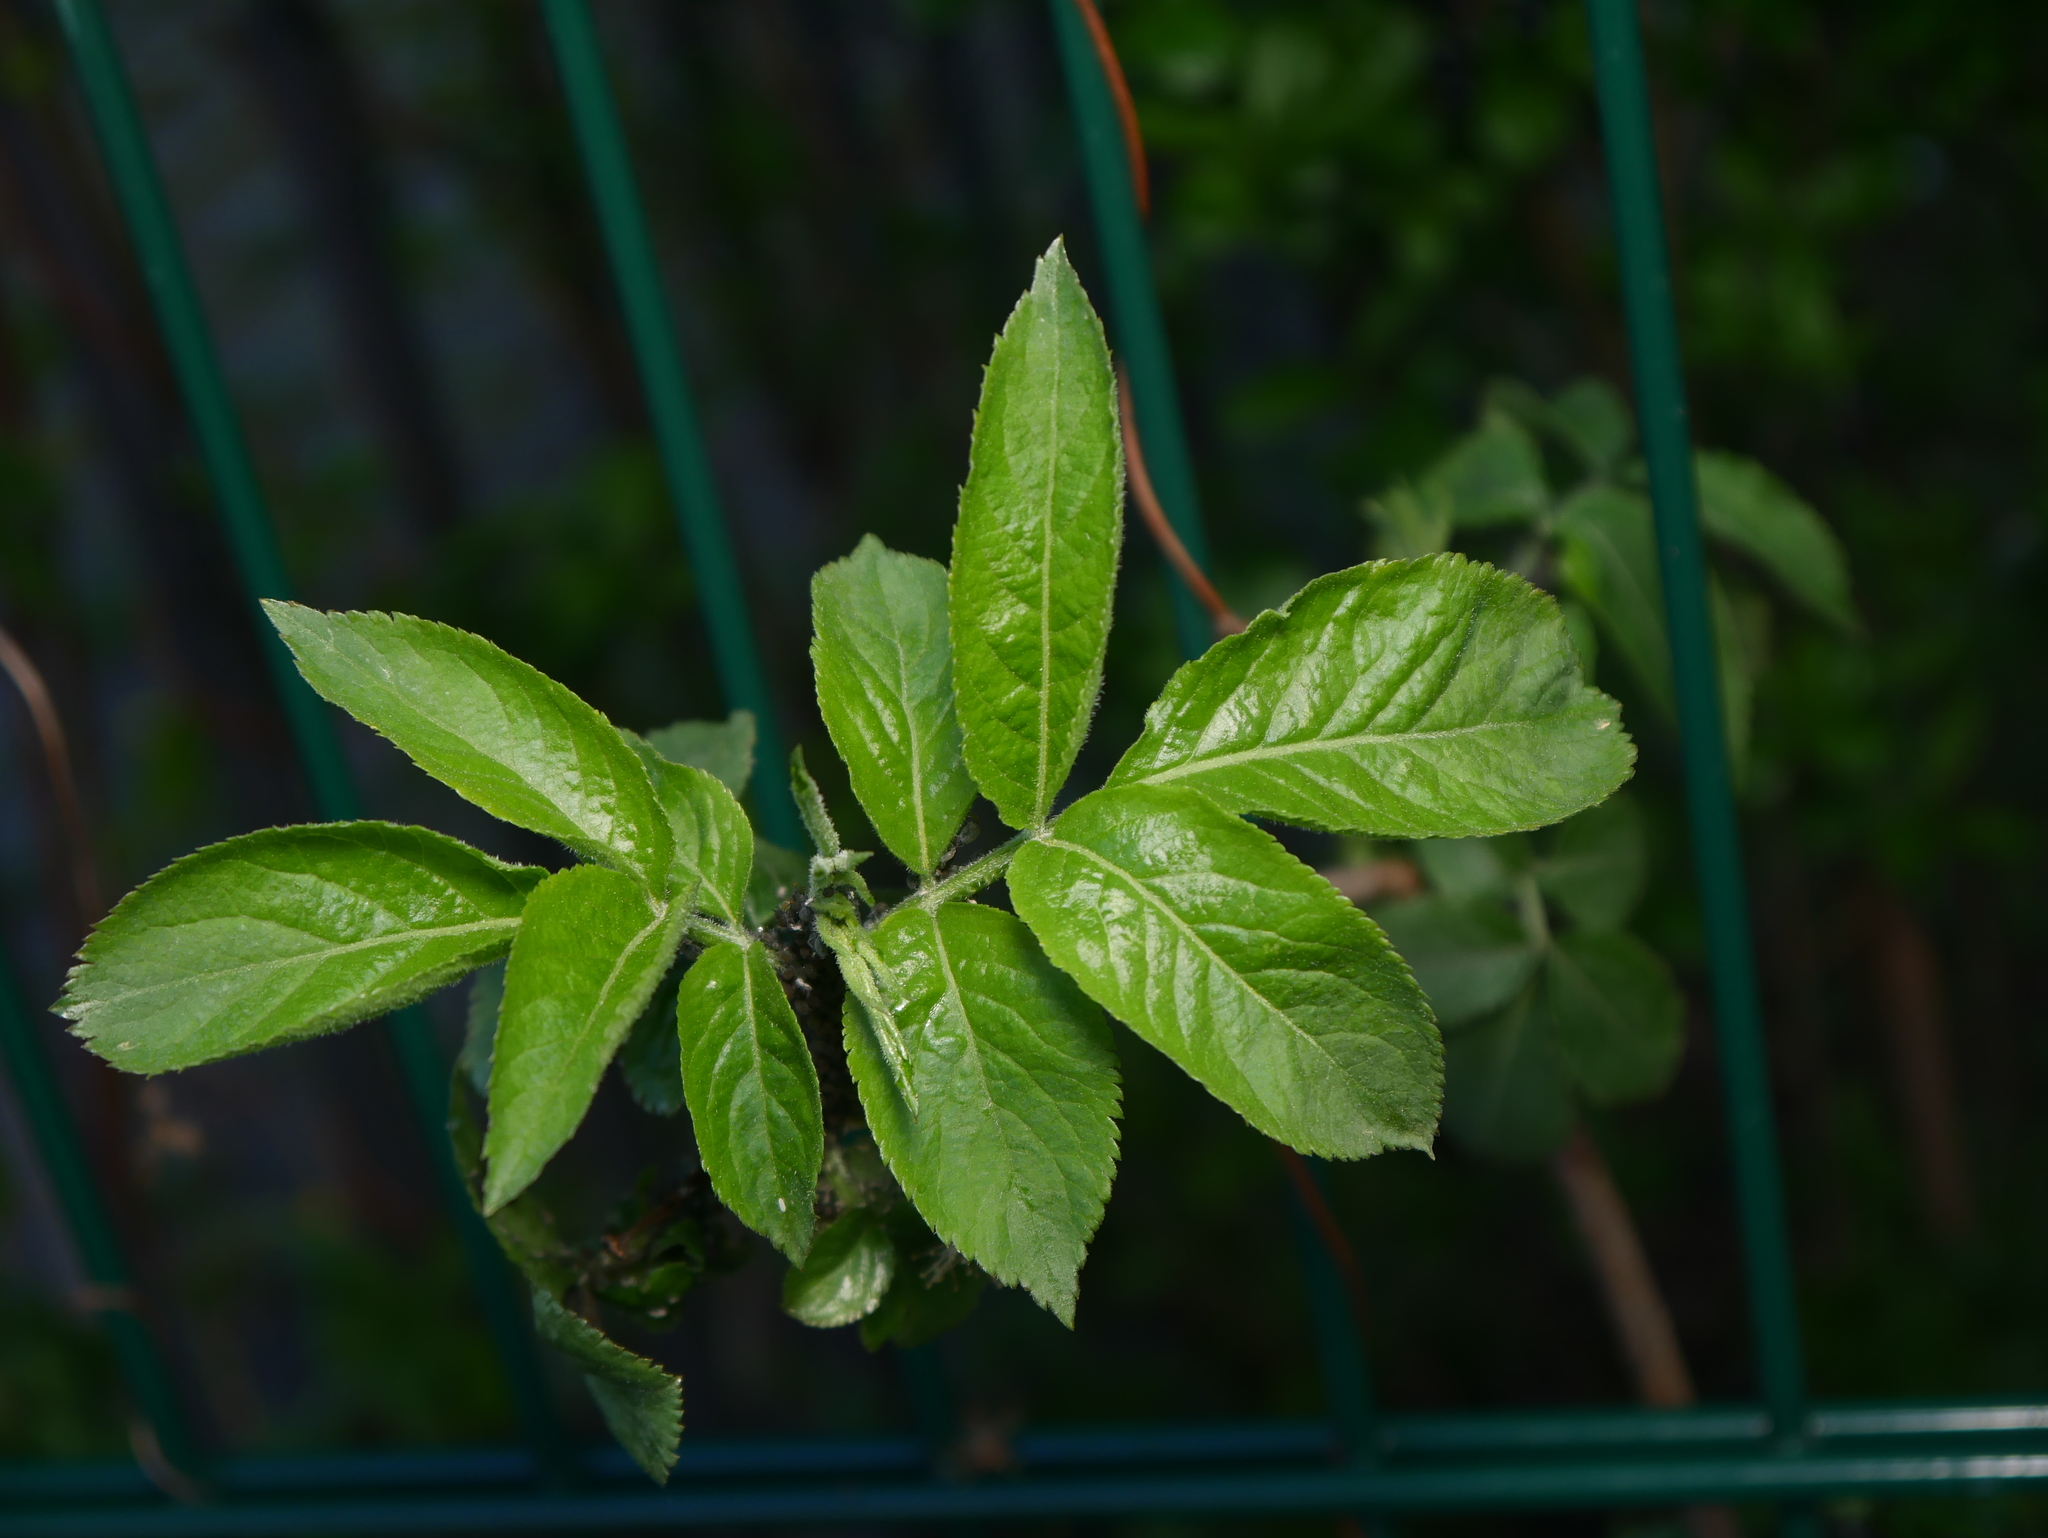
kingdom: Plantae
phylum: Tracheophyta
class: Magnoliopsida
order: Dipsacales
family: Viburnaceae
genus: Sambucus
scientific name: Sambucus nigra
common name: Elder
